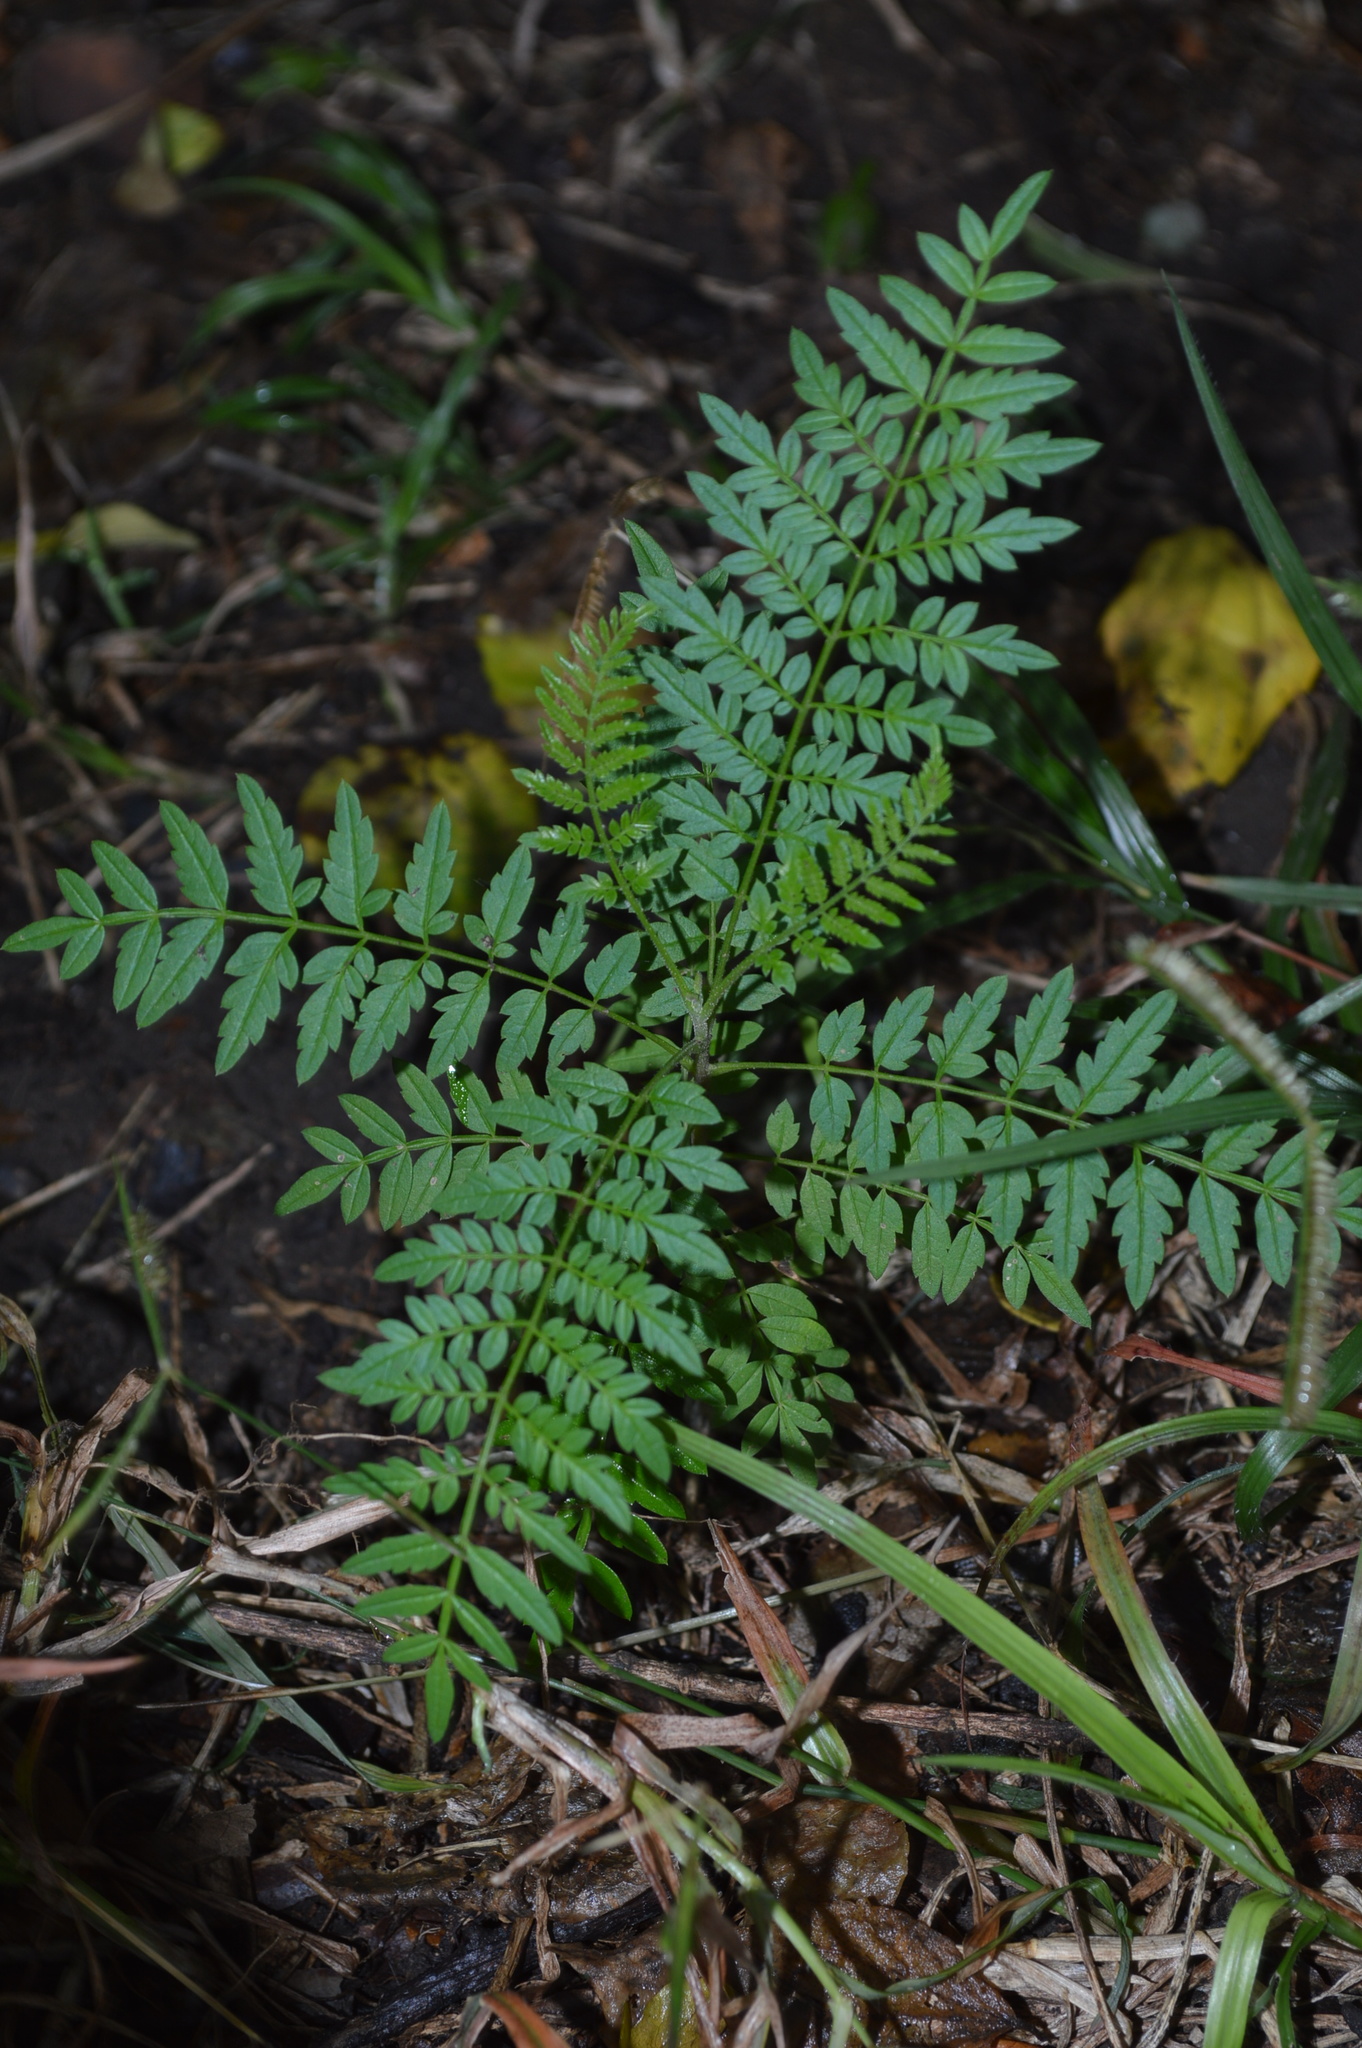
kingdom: Plantae
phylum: Tracheophyta
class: Magnoliopsida
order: Lamiales
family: Bignoniaceae
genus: Jacaranda
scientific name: Jacaranda mimosifolia
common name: Black poui
